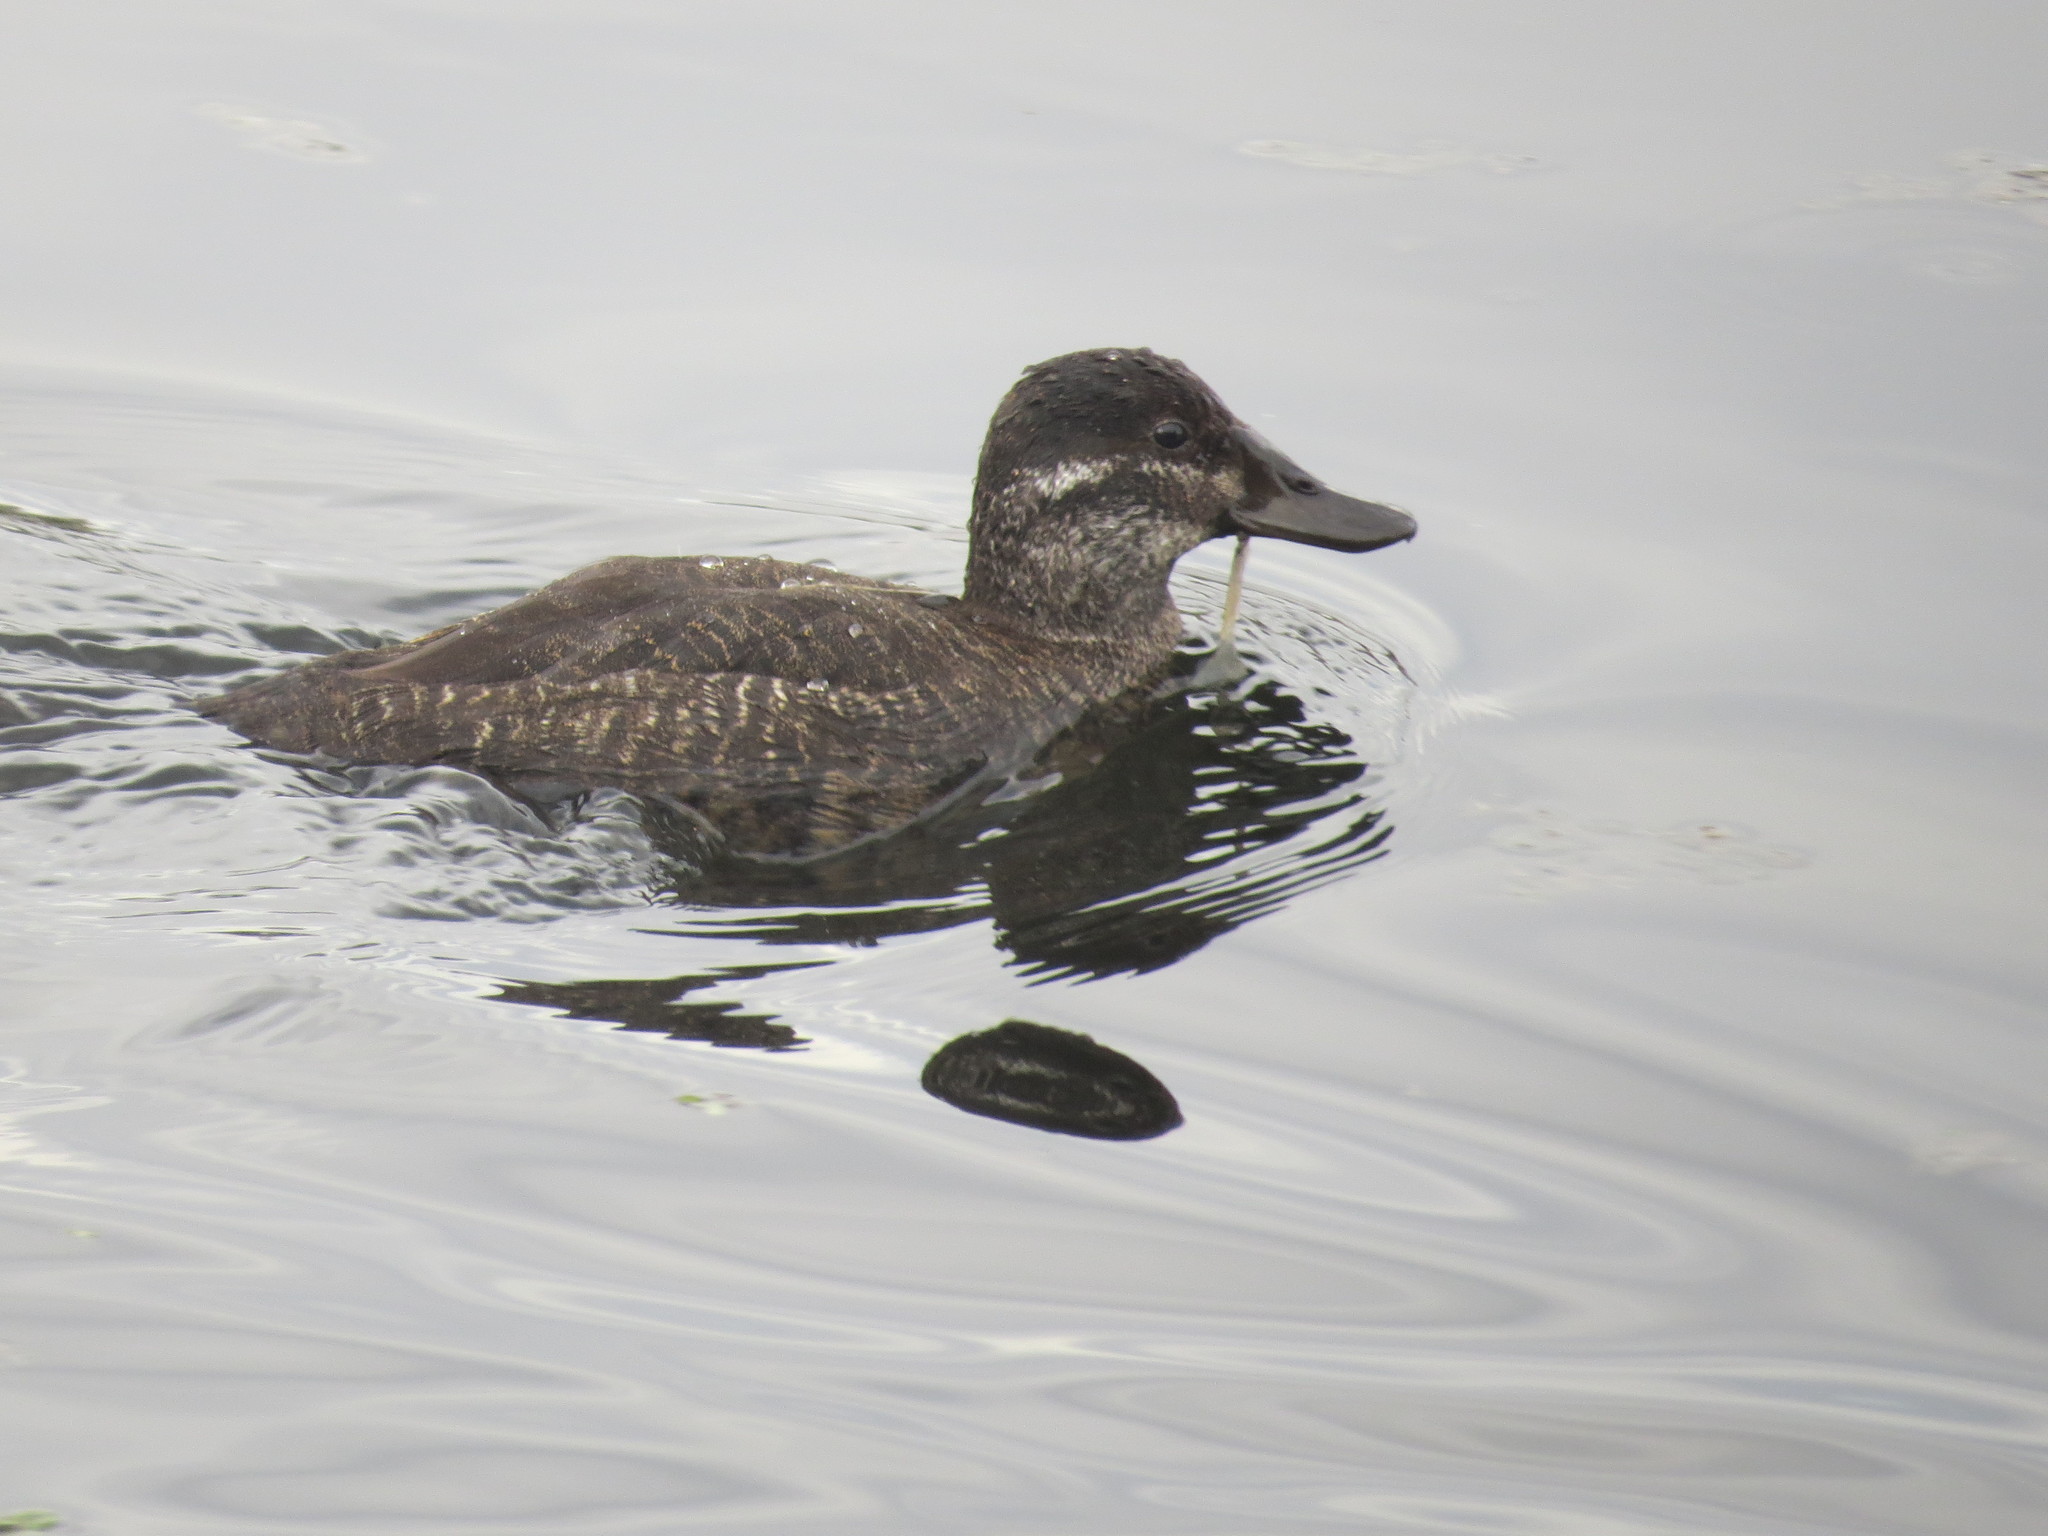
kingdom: Animalia
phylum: Chordata
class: Aves
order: Anseriformes
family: Anatidae
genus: Oxyura
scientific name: Oxyura vittata
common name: Lake duck
